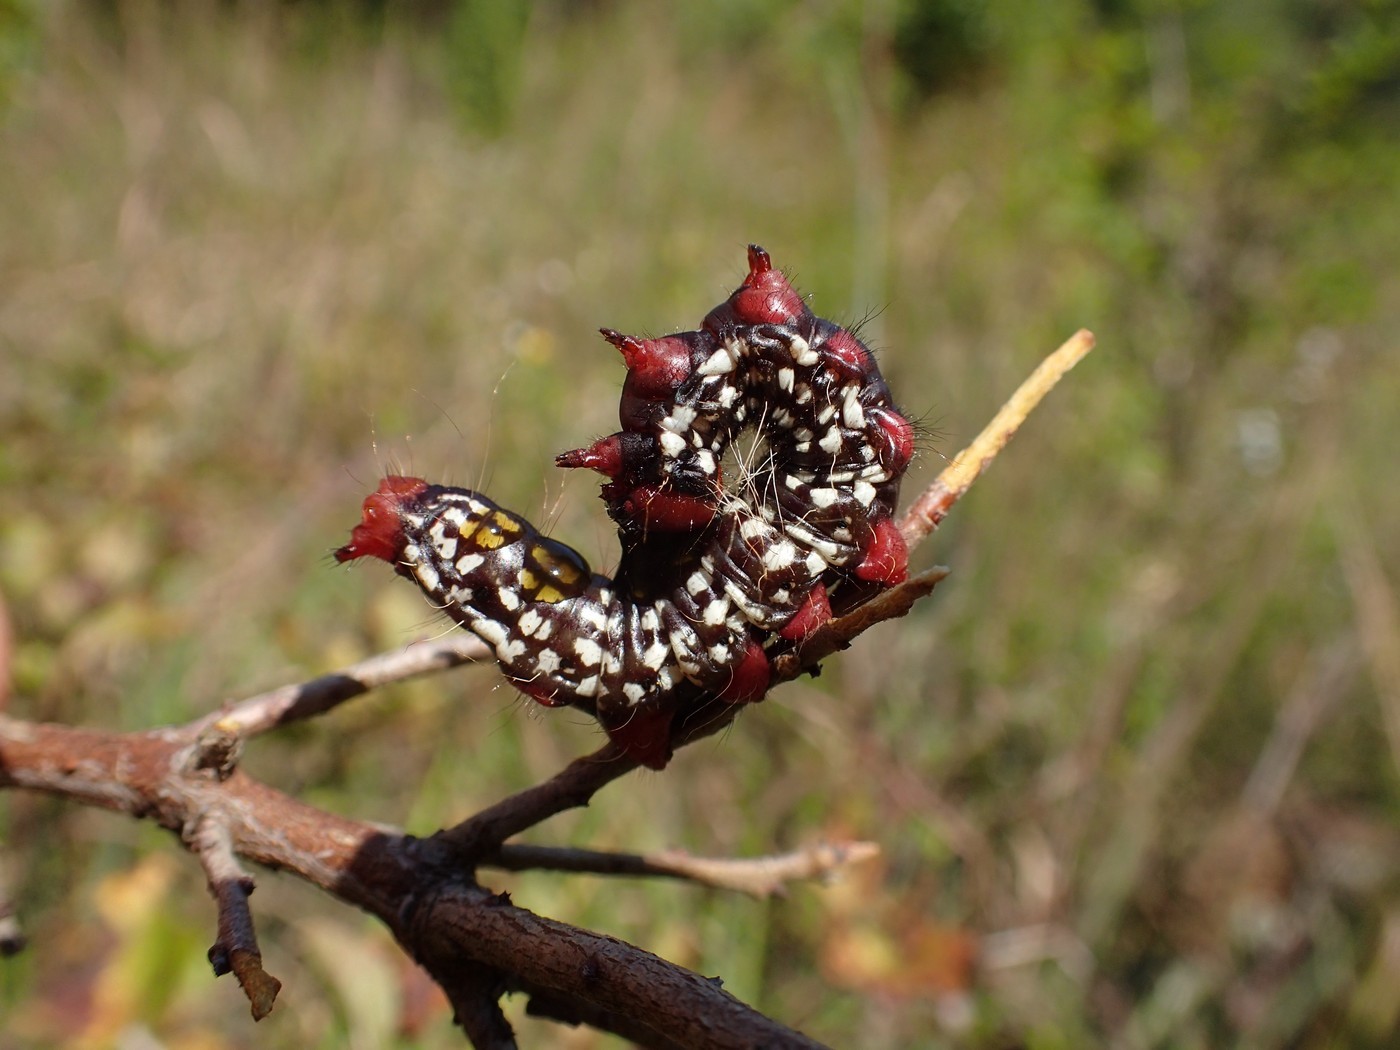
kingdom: Animalia
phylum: Arthropoda
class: Insecta
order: Lepidoptera
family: Notodontidae
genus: Datana
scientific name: Datana major
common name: Azalea caterpillar
